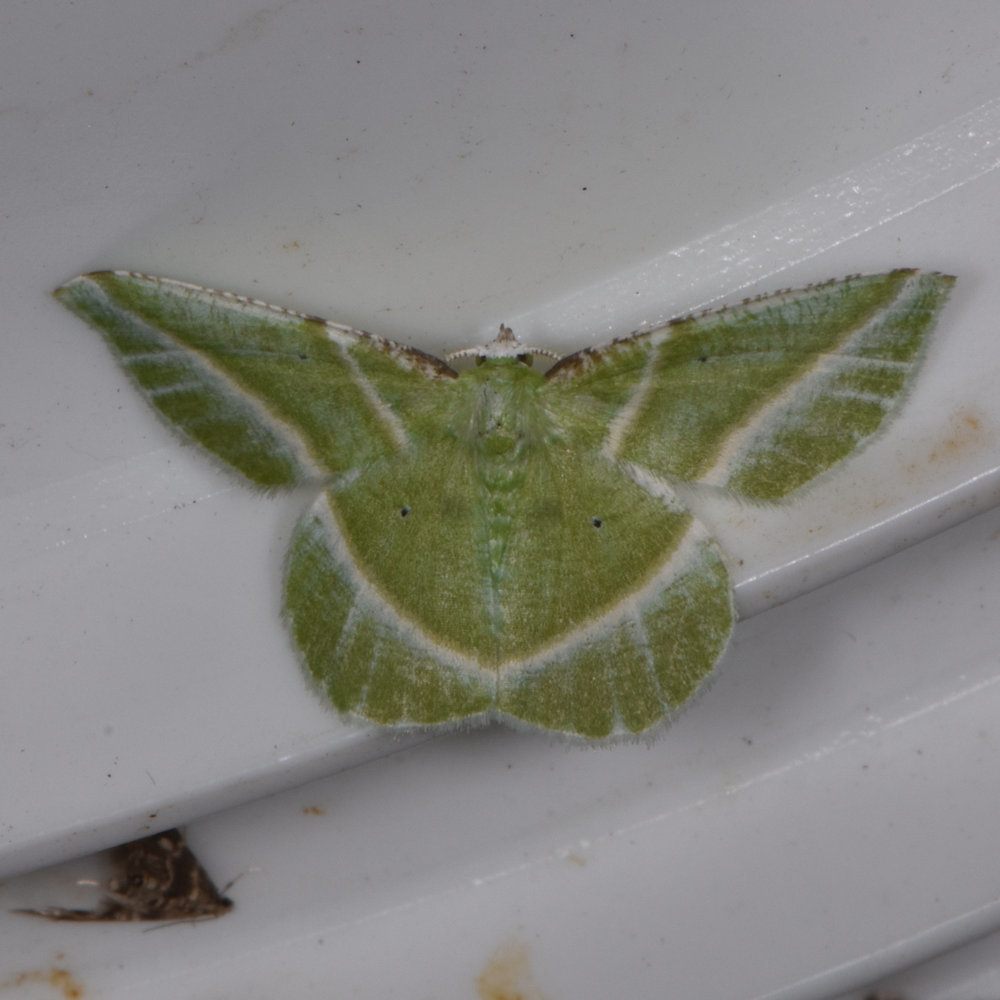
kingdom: Animalia
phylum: Arthropoda
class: Insecta
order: Lepidoptera
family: Geometridae
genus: Dichorda
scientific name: Dichorda iridaria
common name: Showy emerald
